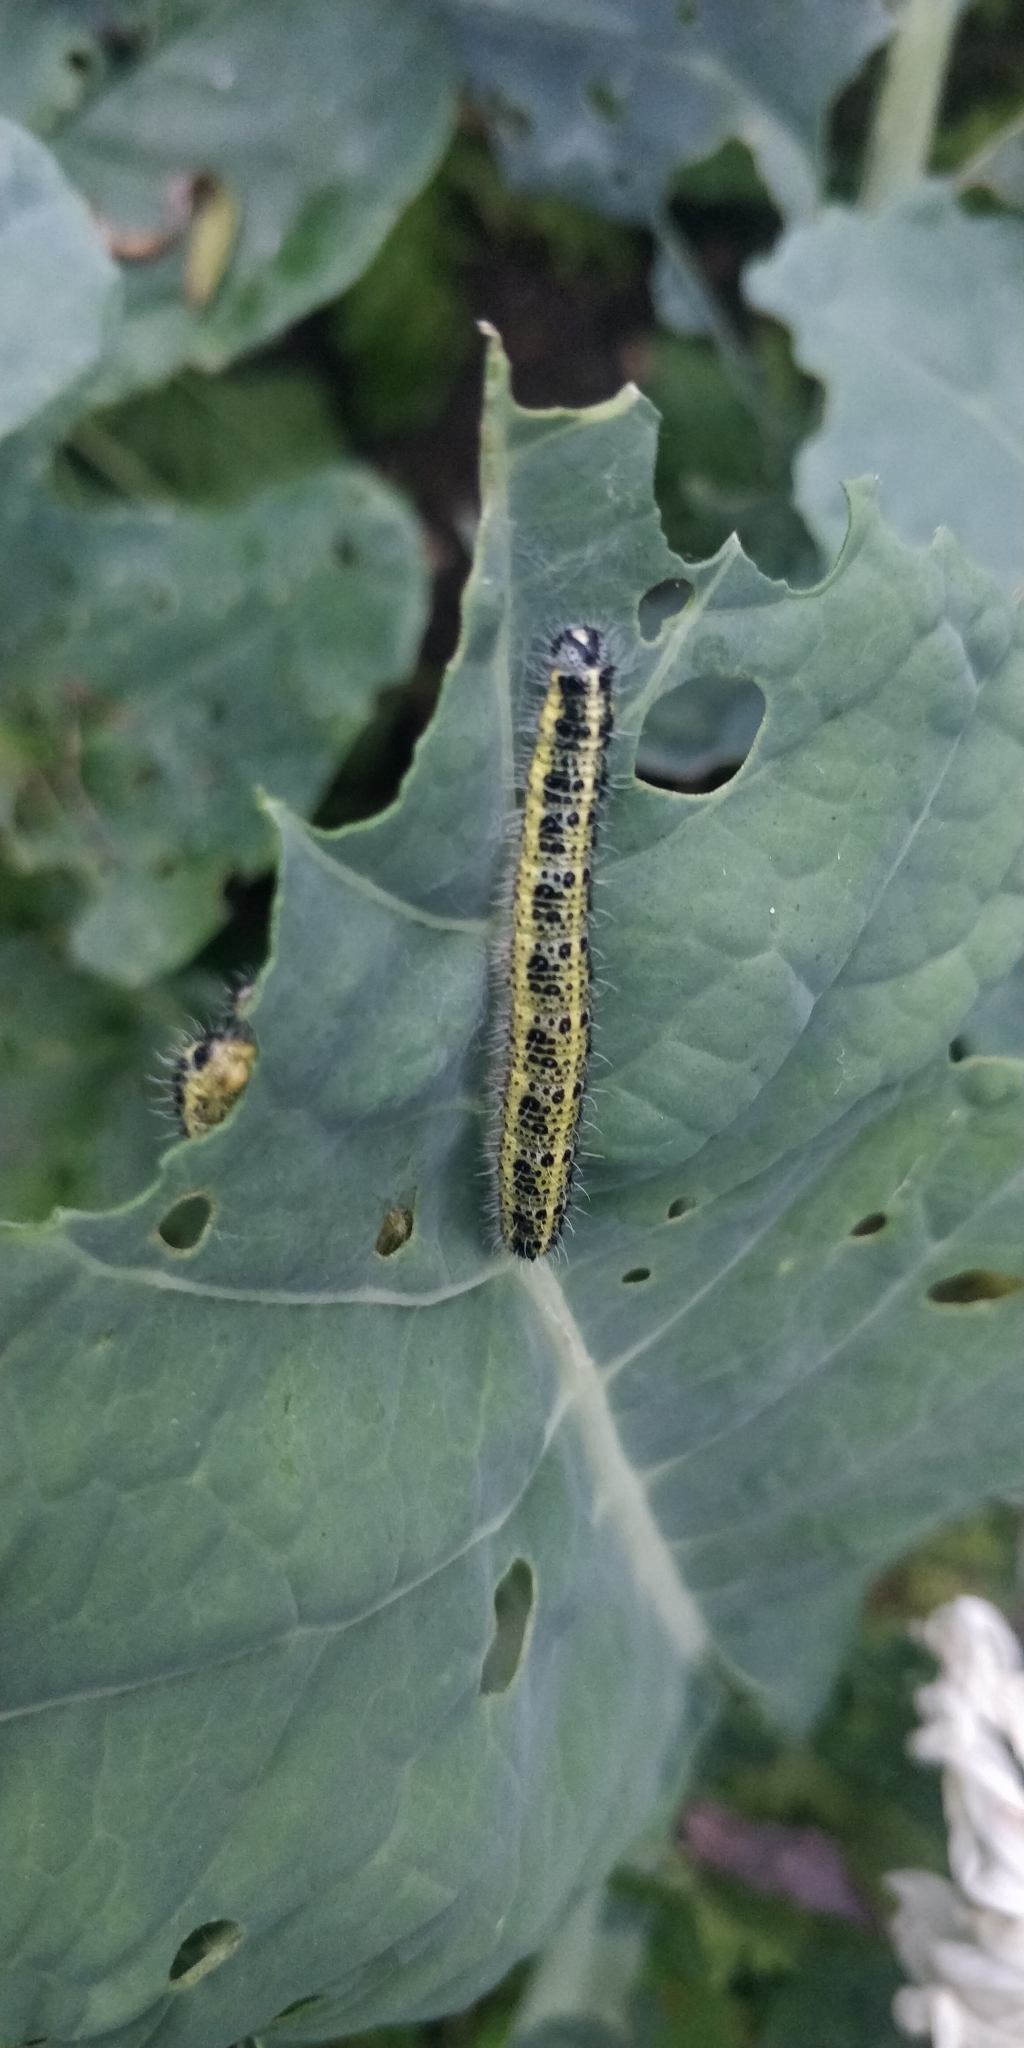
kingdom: Animalia
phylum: Arthropoda
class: Insecta
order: Lepidoptera
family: Pieridae
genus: Pieris
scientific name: Pieris brassicae
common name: Large white
